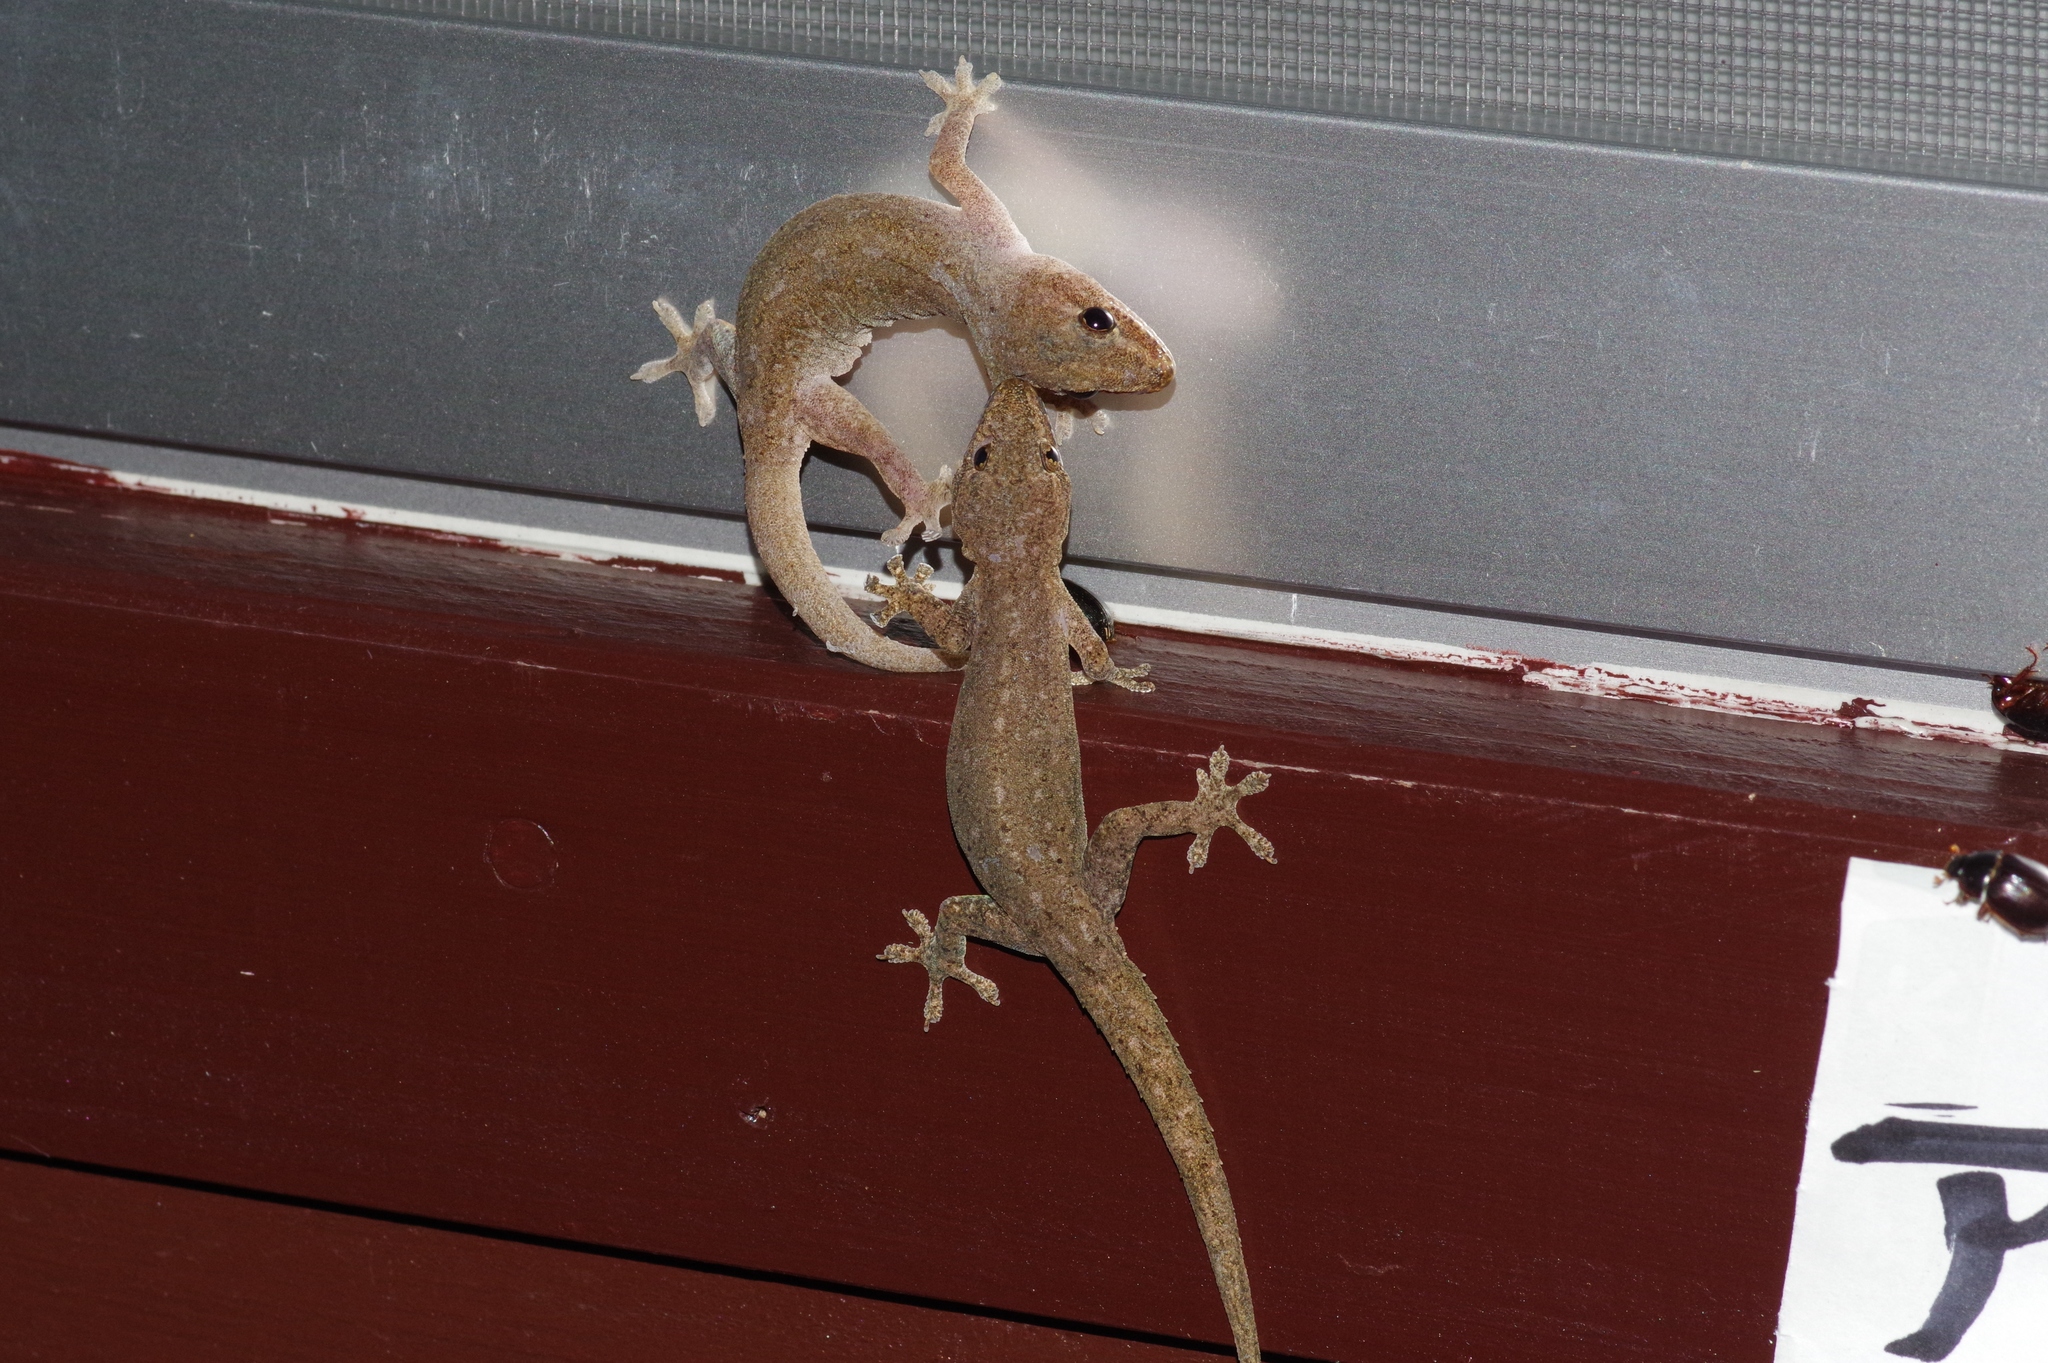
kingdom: Animalia
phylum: Chordata
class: Squamata
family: Gekkonidae
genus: Hemidactylus
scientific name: Hemidactylus frenatus
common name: Common house gecko
